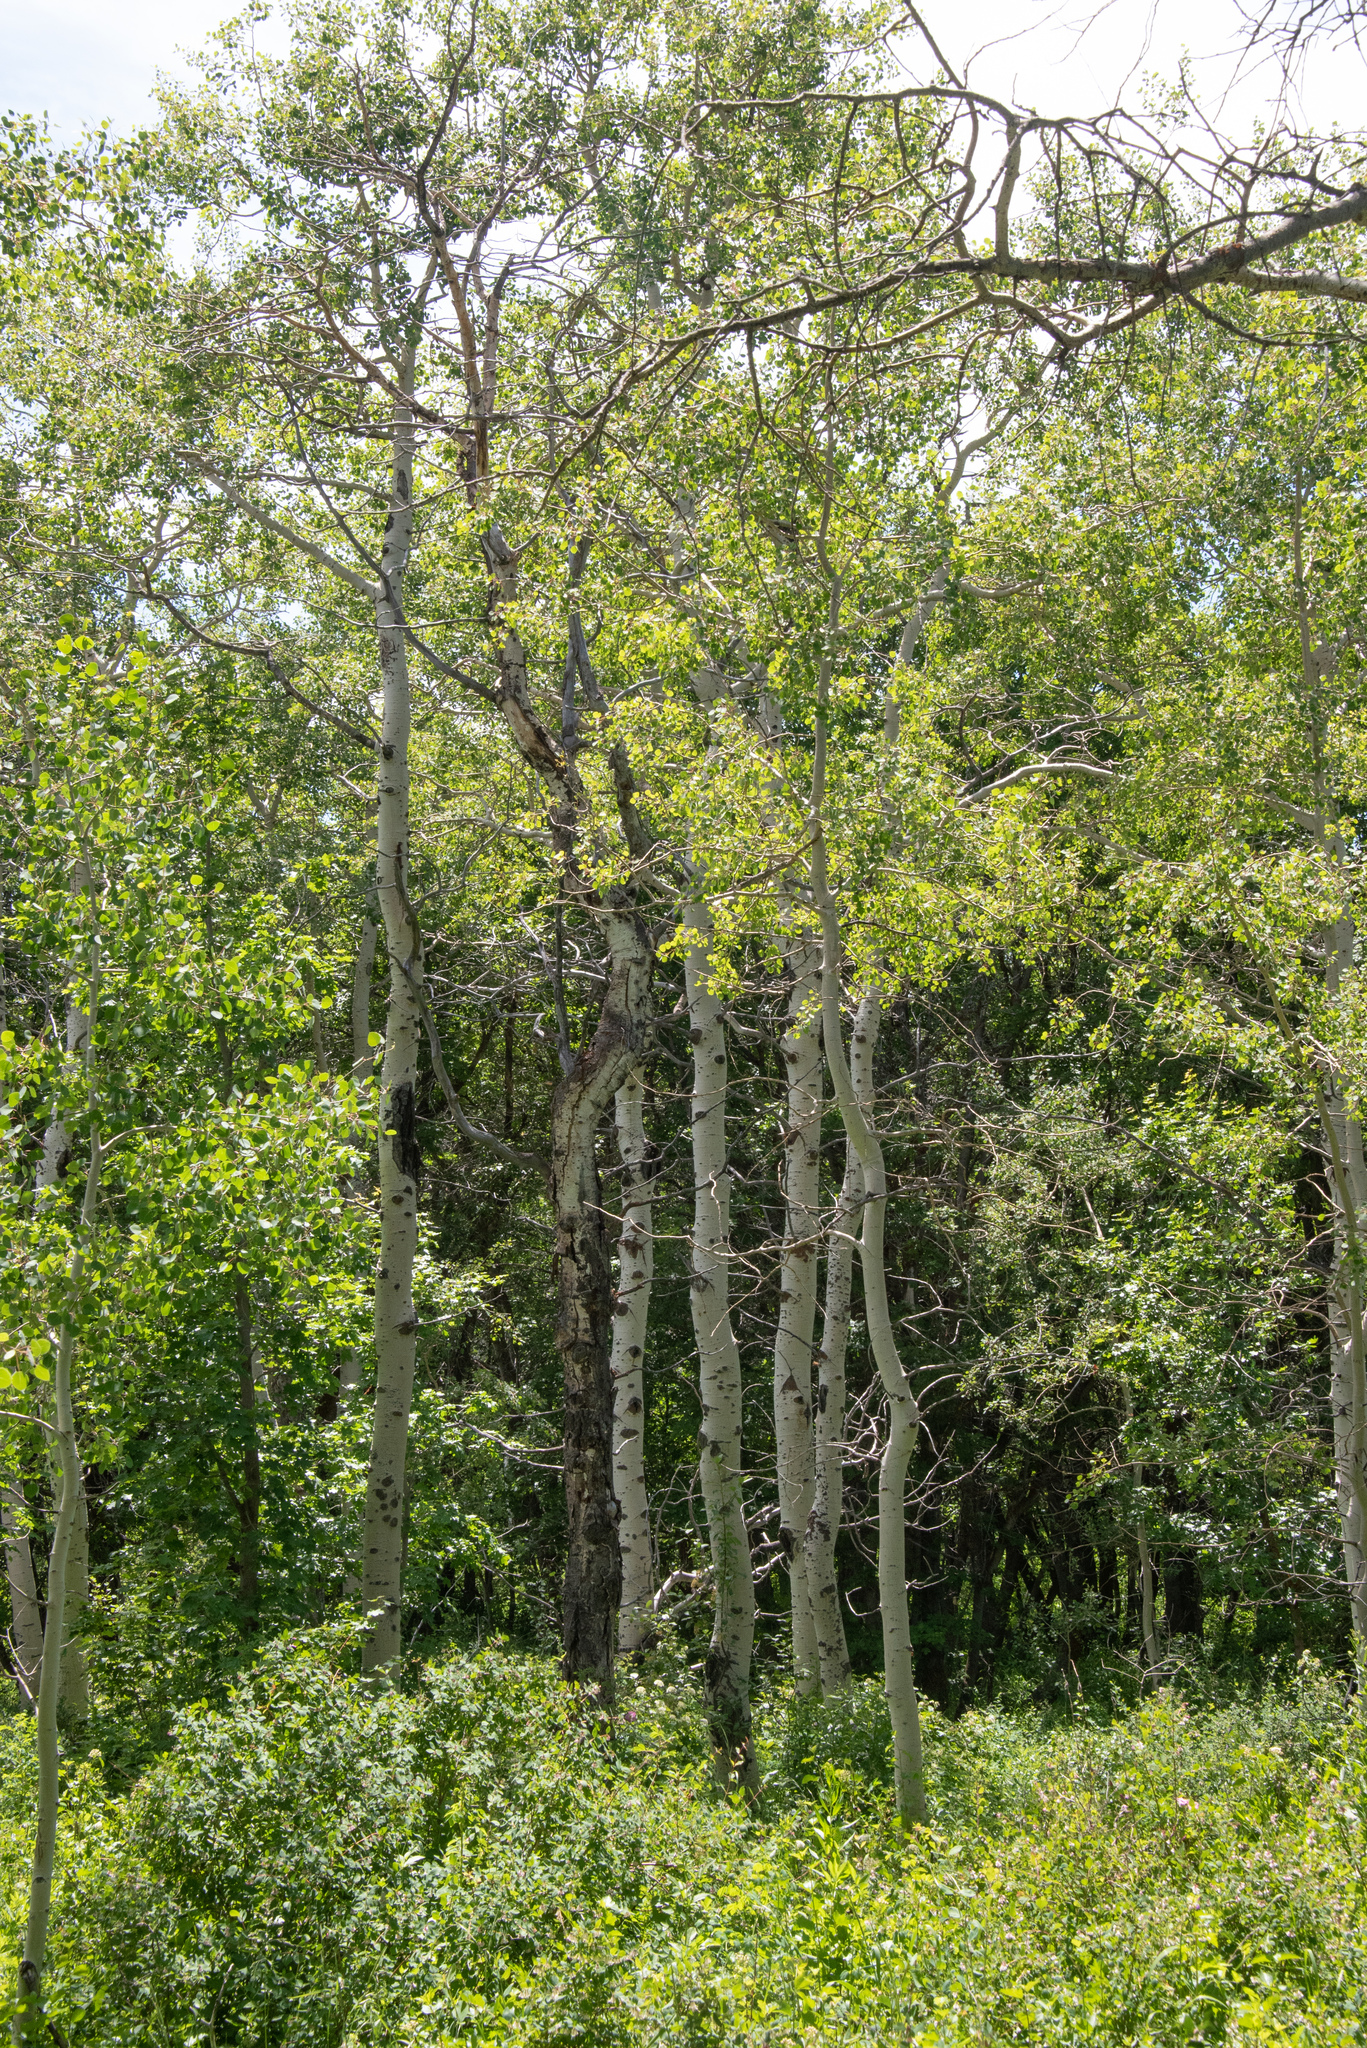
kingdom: Plantae
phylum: Tracheophyta
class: Magnoliopsida
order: Malpighiales
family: Salicaceae
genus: Populus
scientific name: Populus tremuloides
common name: Quaking aspen
